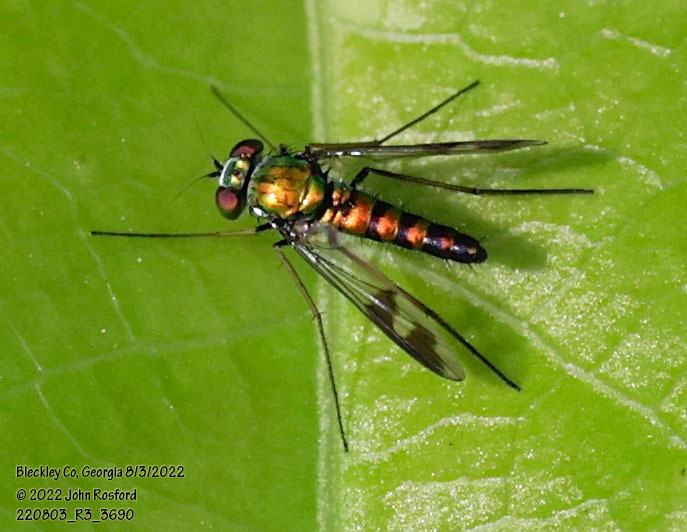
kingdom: Animalia
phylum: Arthropoda
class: Insecta
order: Diptera
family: Dolichopodidae
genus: Condylostylus
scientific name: Condylostylus quadricolor
